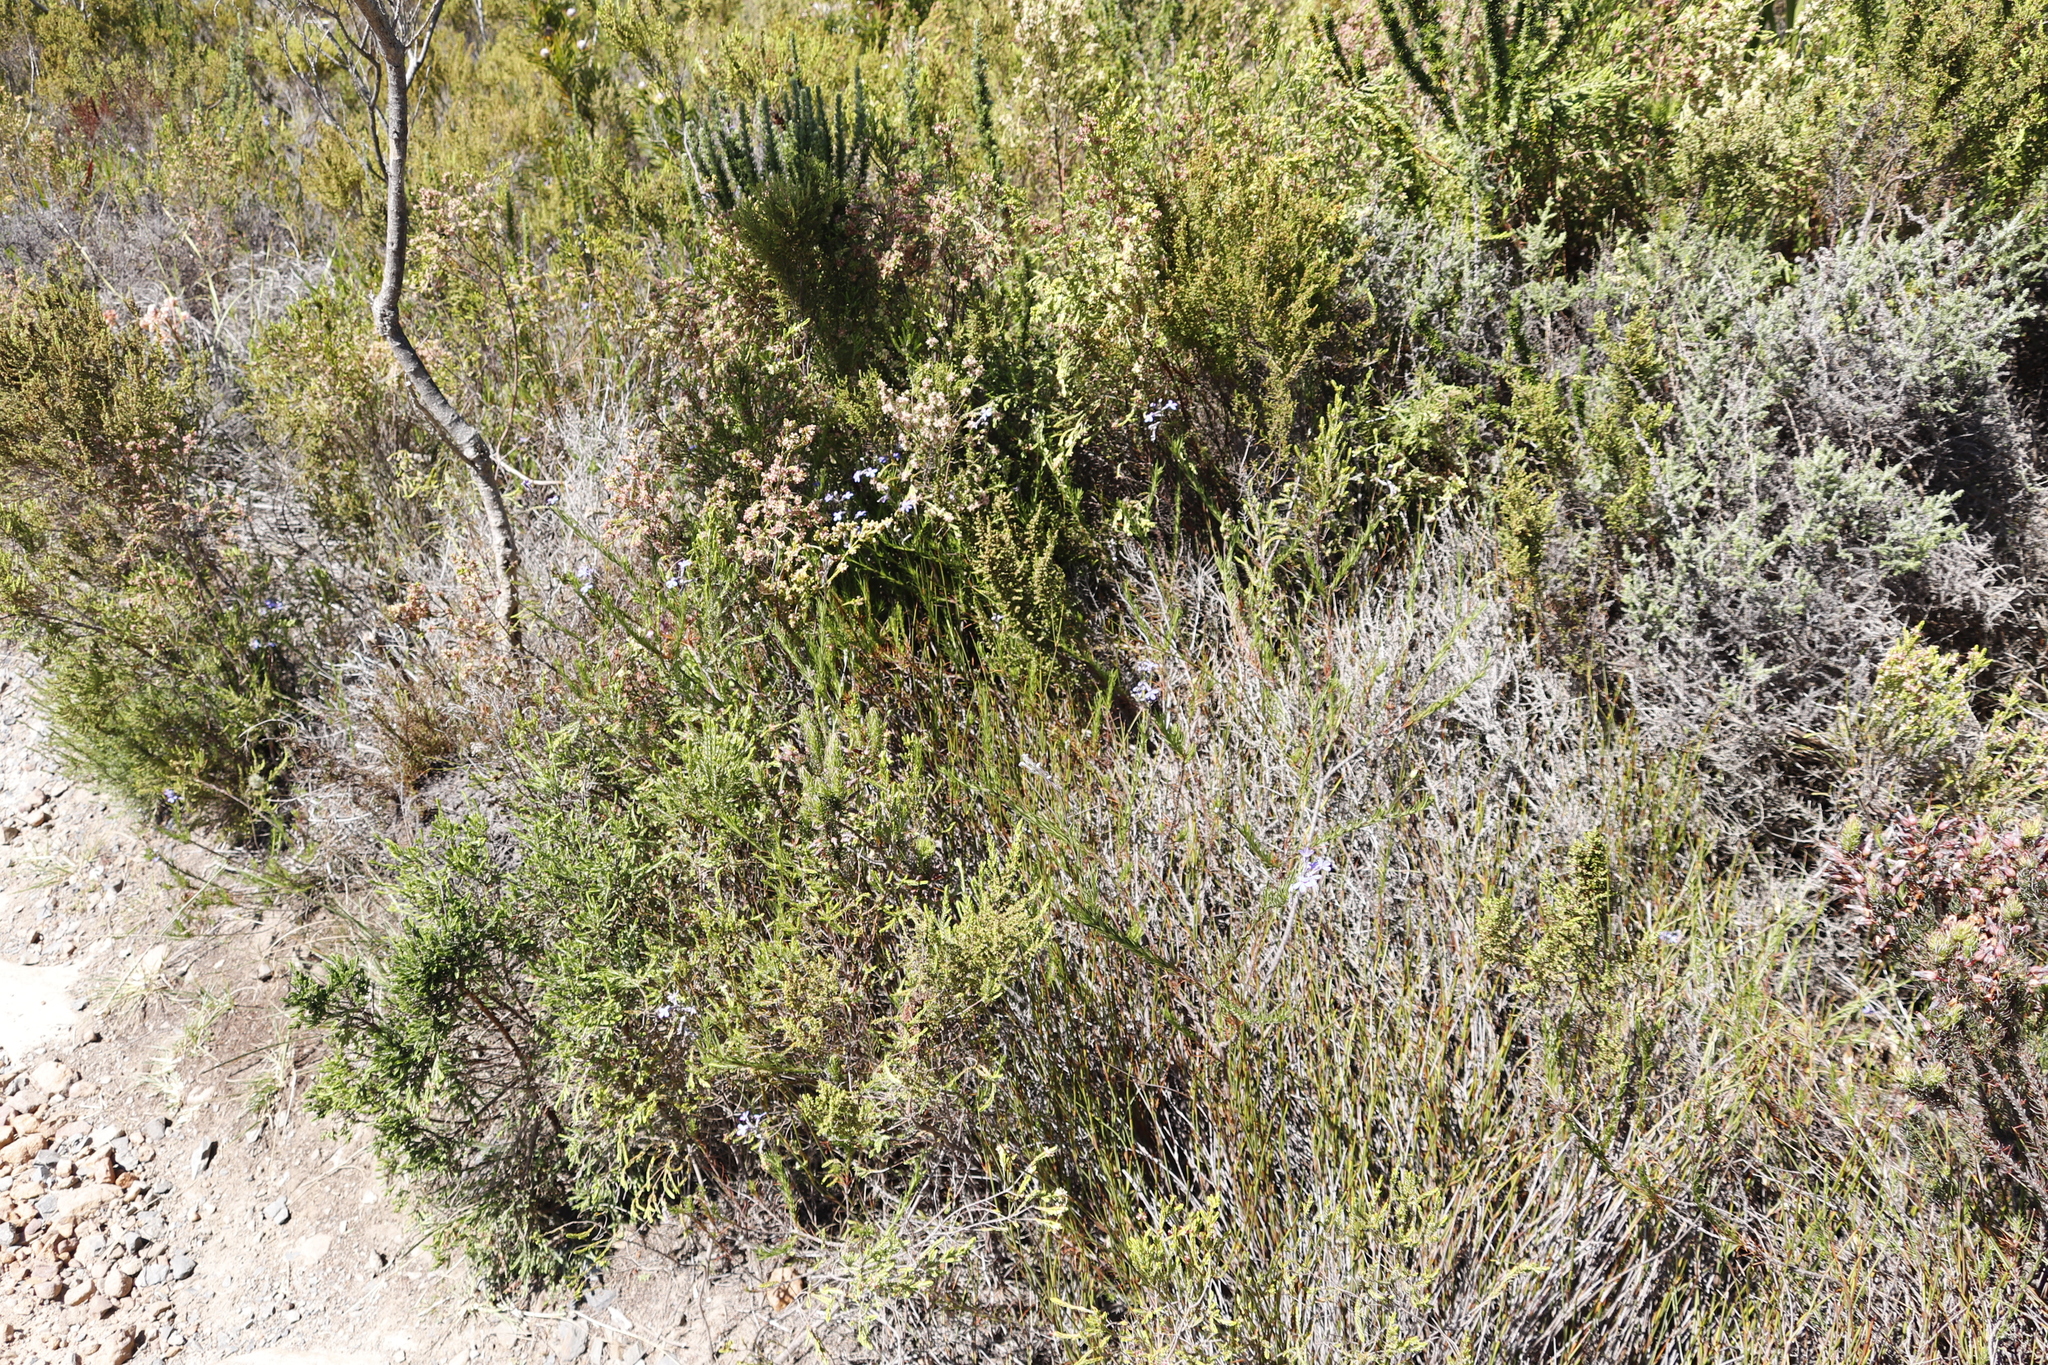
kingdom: Plantae
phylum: Tracheophyta
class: Magnoliopsida
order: Asterales
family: Campanulaceae
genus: Lobelia
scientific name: Lobelia pinifolia
